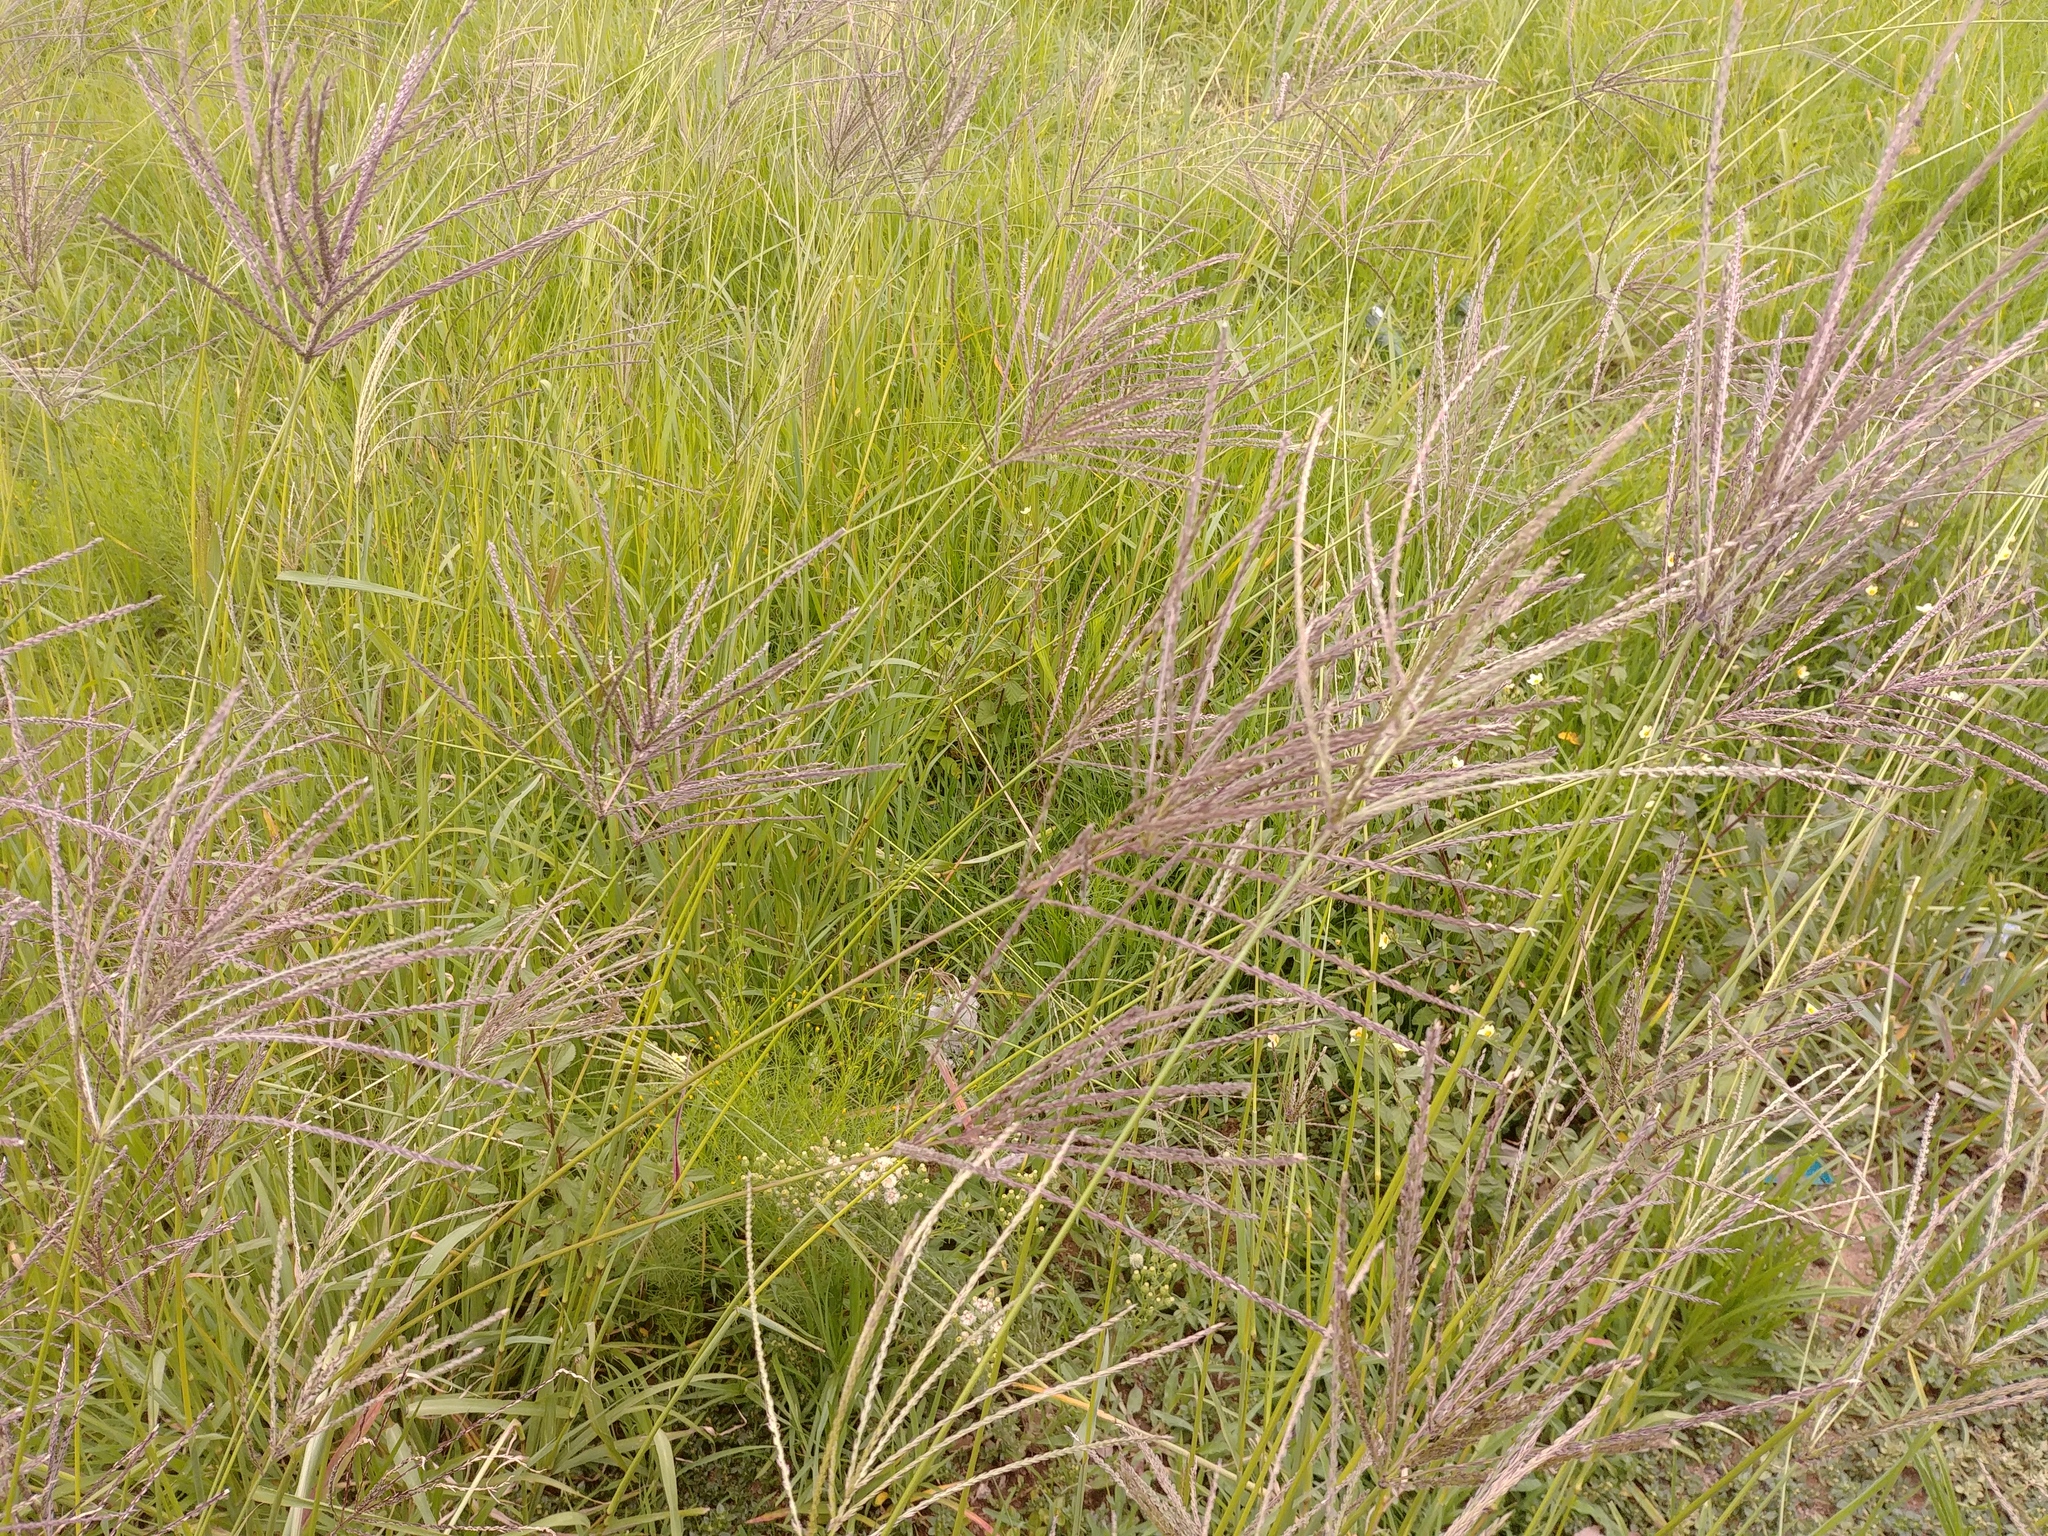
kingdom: Plantae
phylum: Tracheophyta
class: Liliopsida
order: Poales
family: Poaceae
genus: Digitaria
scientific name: Digitaria eriantha
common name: Digitgrass
